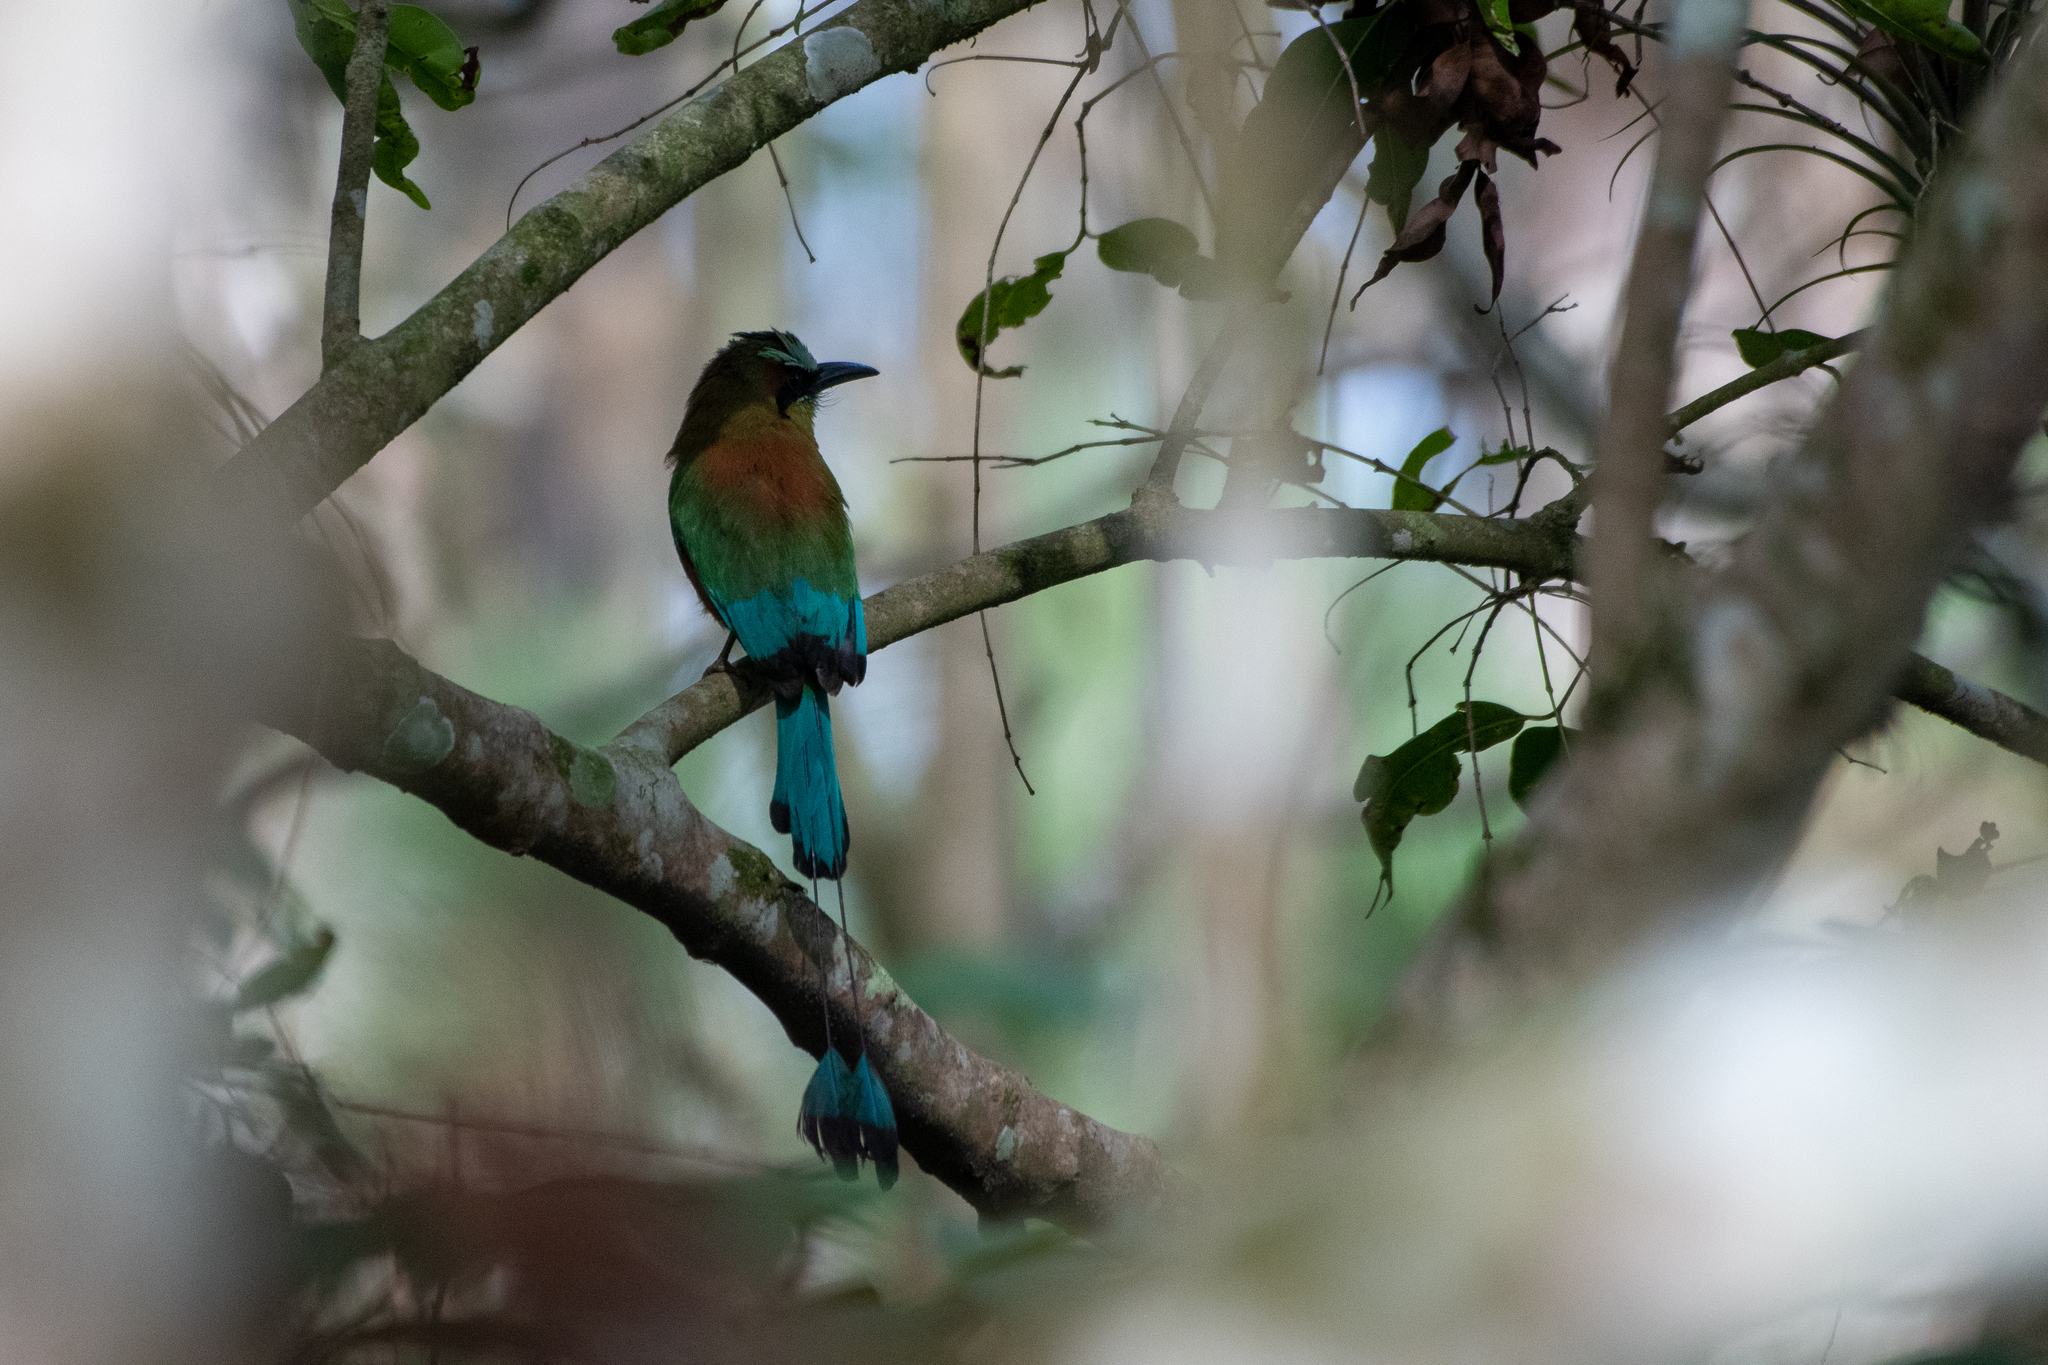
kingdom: Animalia
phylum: Chordata
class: Aves
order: Coraciiformes
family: Momotidae
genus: Eumomota
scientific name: Eumomota superciliosa
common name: Turquoise-browed motmot
